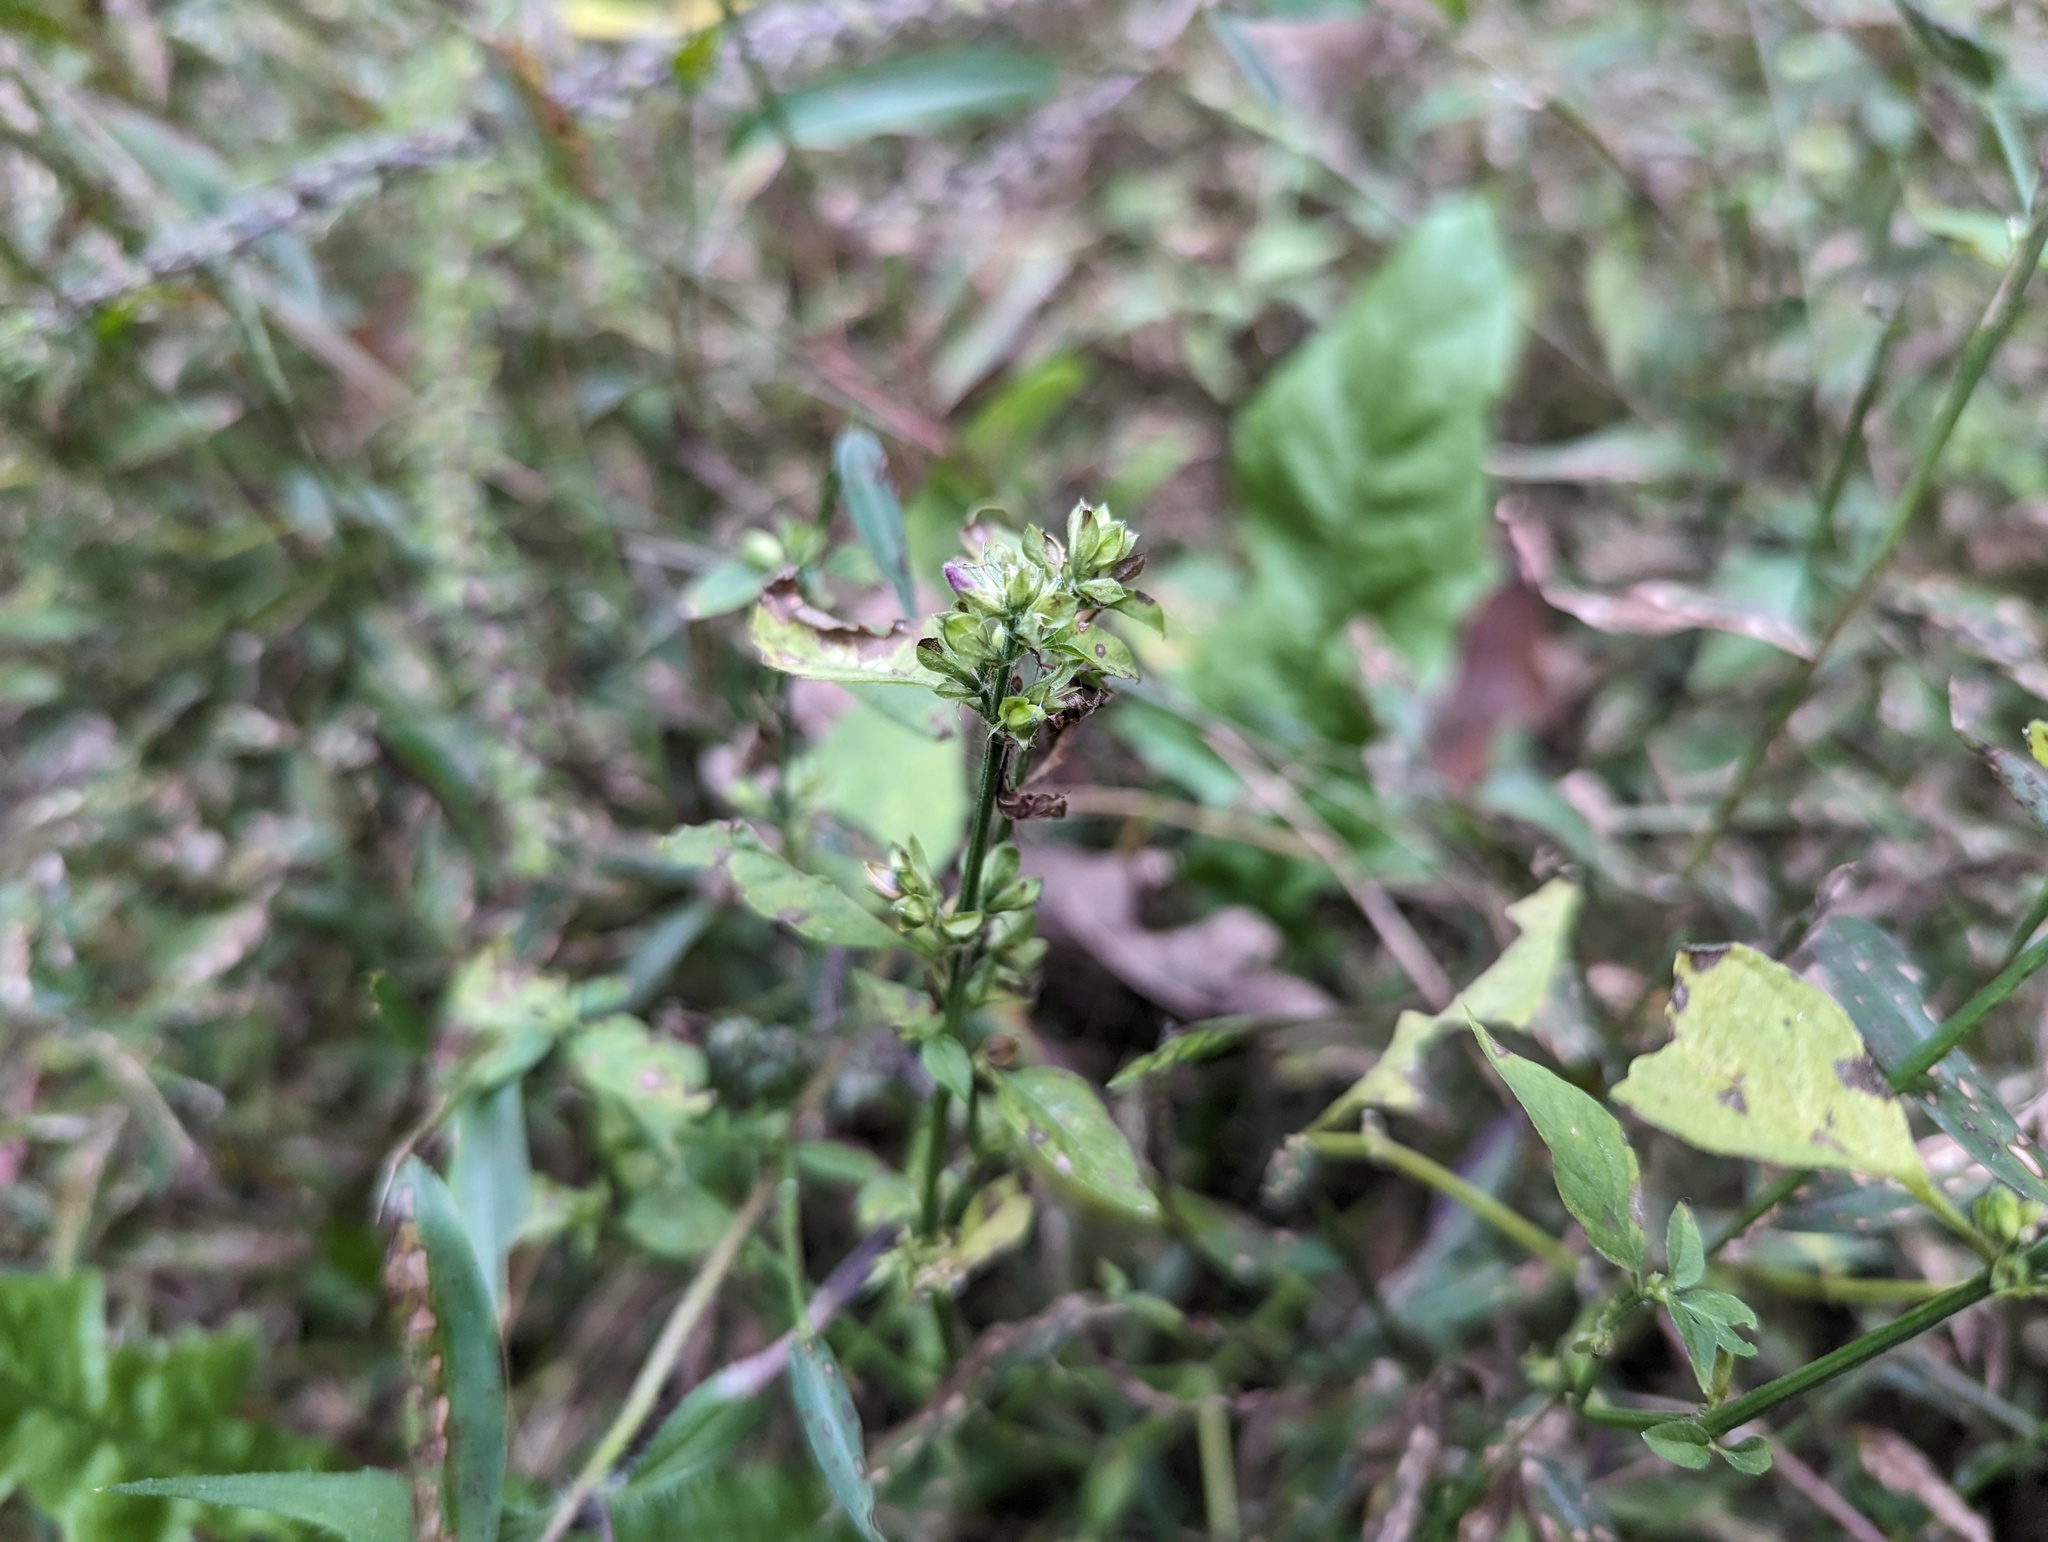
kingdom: Plantae
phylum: Tracheophyta
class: Magnoliopsida
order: Lamiales
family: Acanthaceae
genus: Dicliptera
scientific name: Dicliptera brachiata
